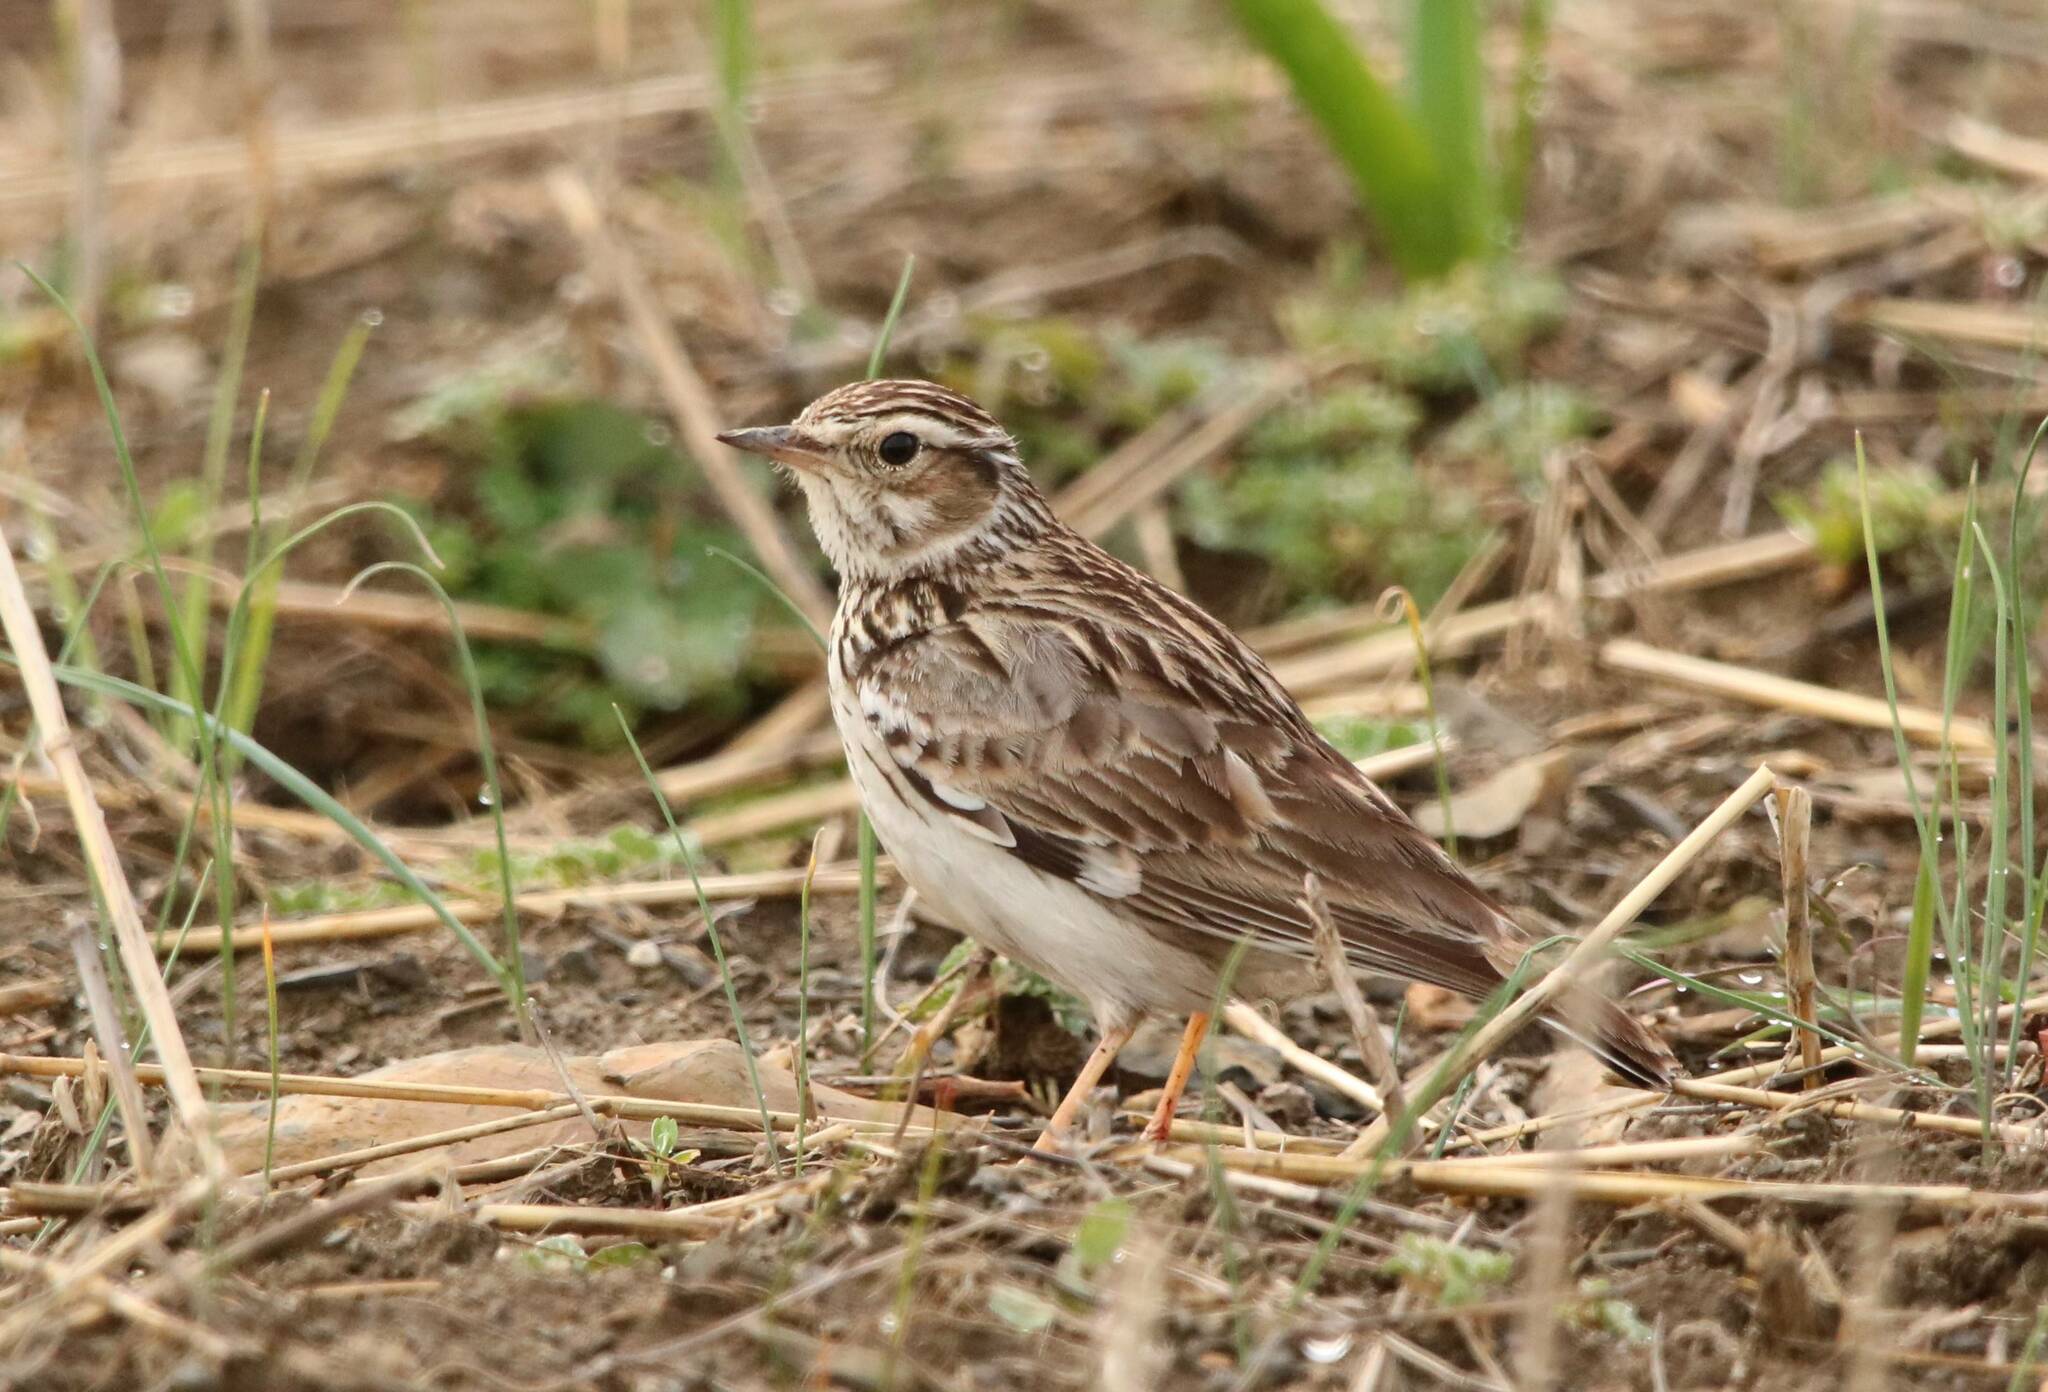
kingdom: Animalia
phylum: Chordata
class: Aves
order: Passeriformes
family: Alaudidae
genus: Lullula
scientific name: Lullula arborea
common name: Woodlark
